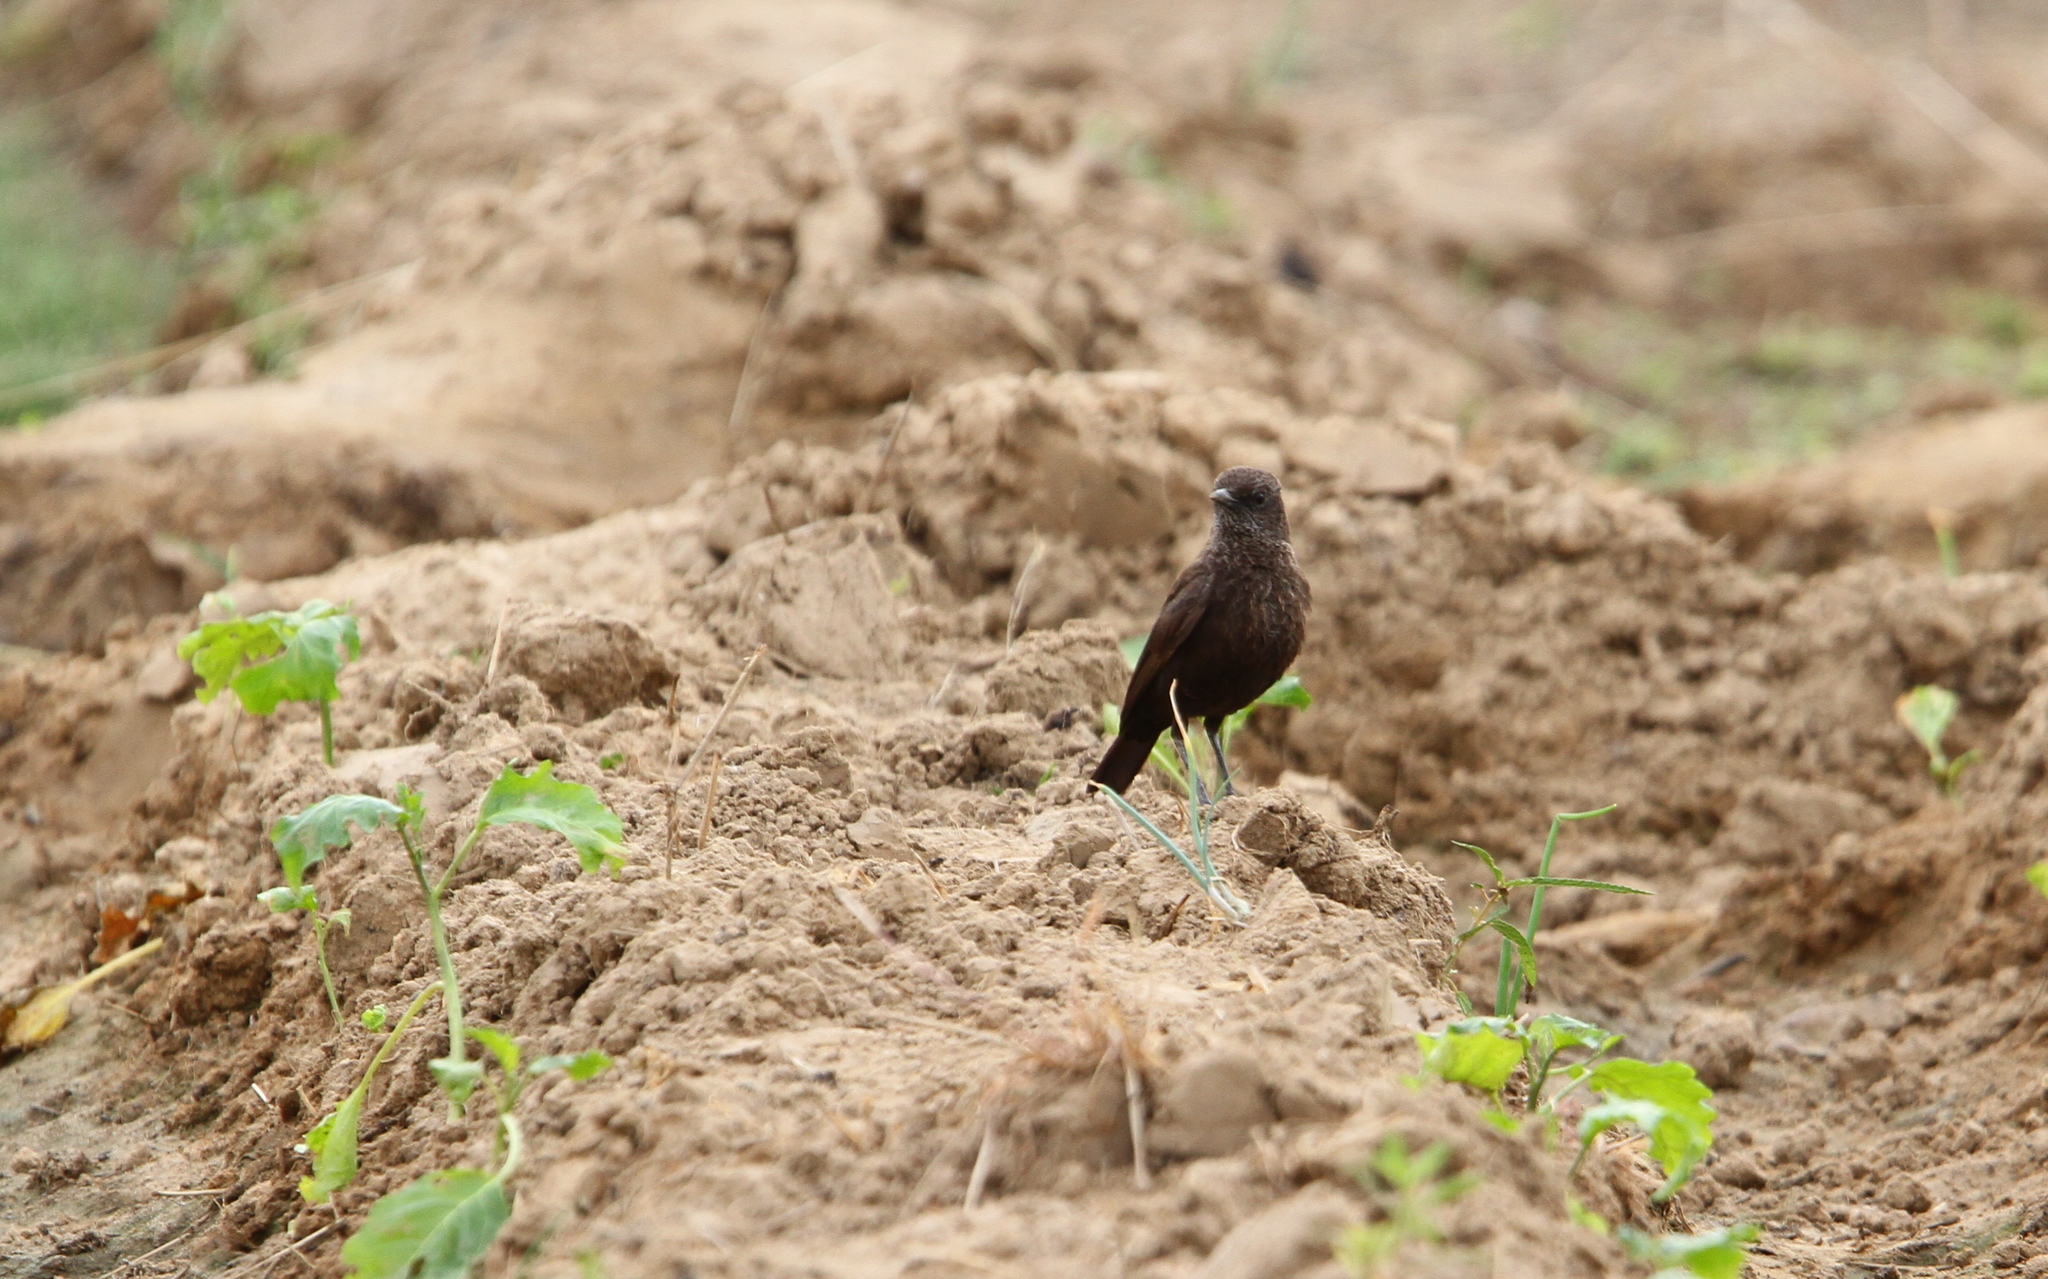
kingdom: Animalia
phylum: Chordata
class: Aves
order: Passeriformes
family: Muscicapidae
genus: Myrmecocichla
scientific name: Myrmecocichla aethiops
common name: Anteater chat
